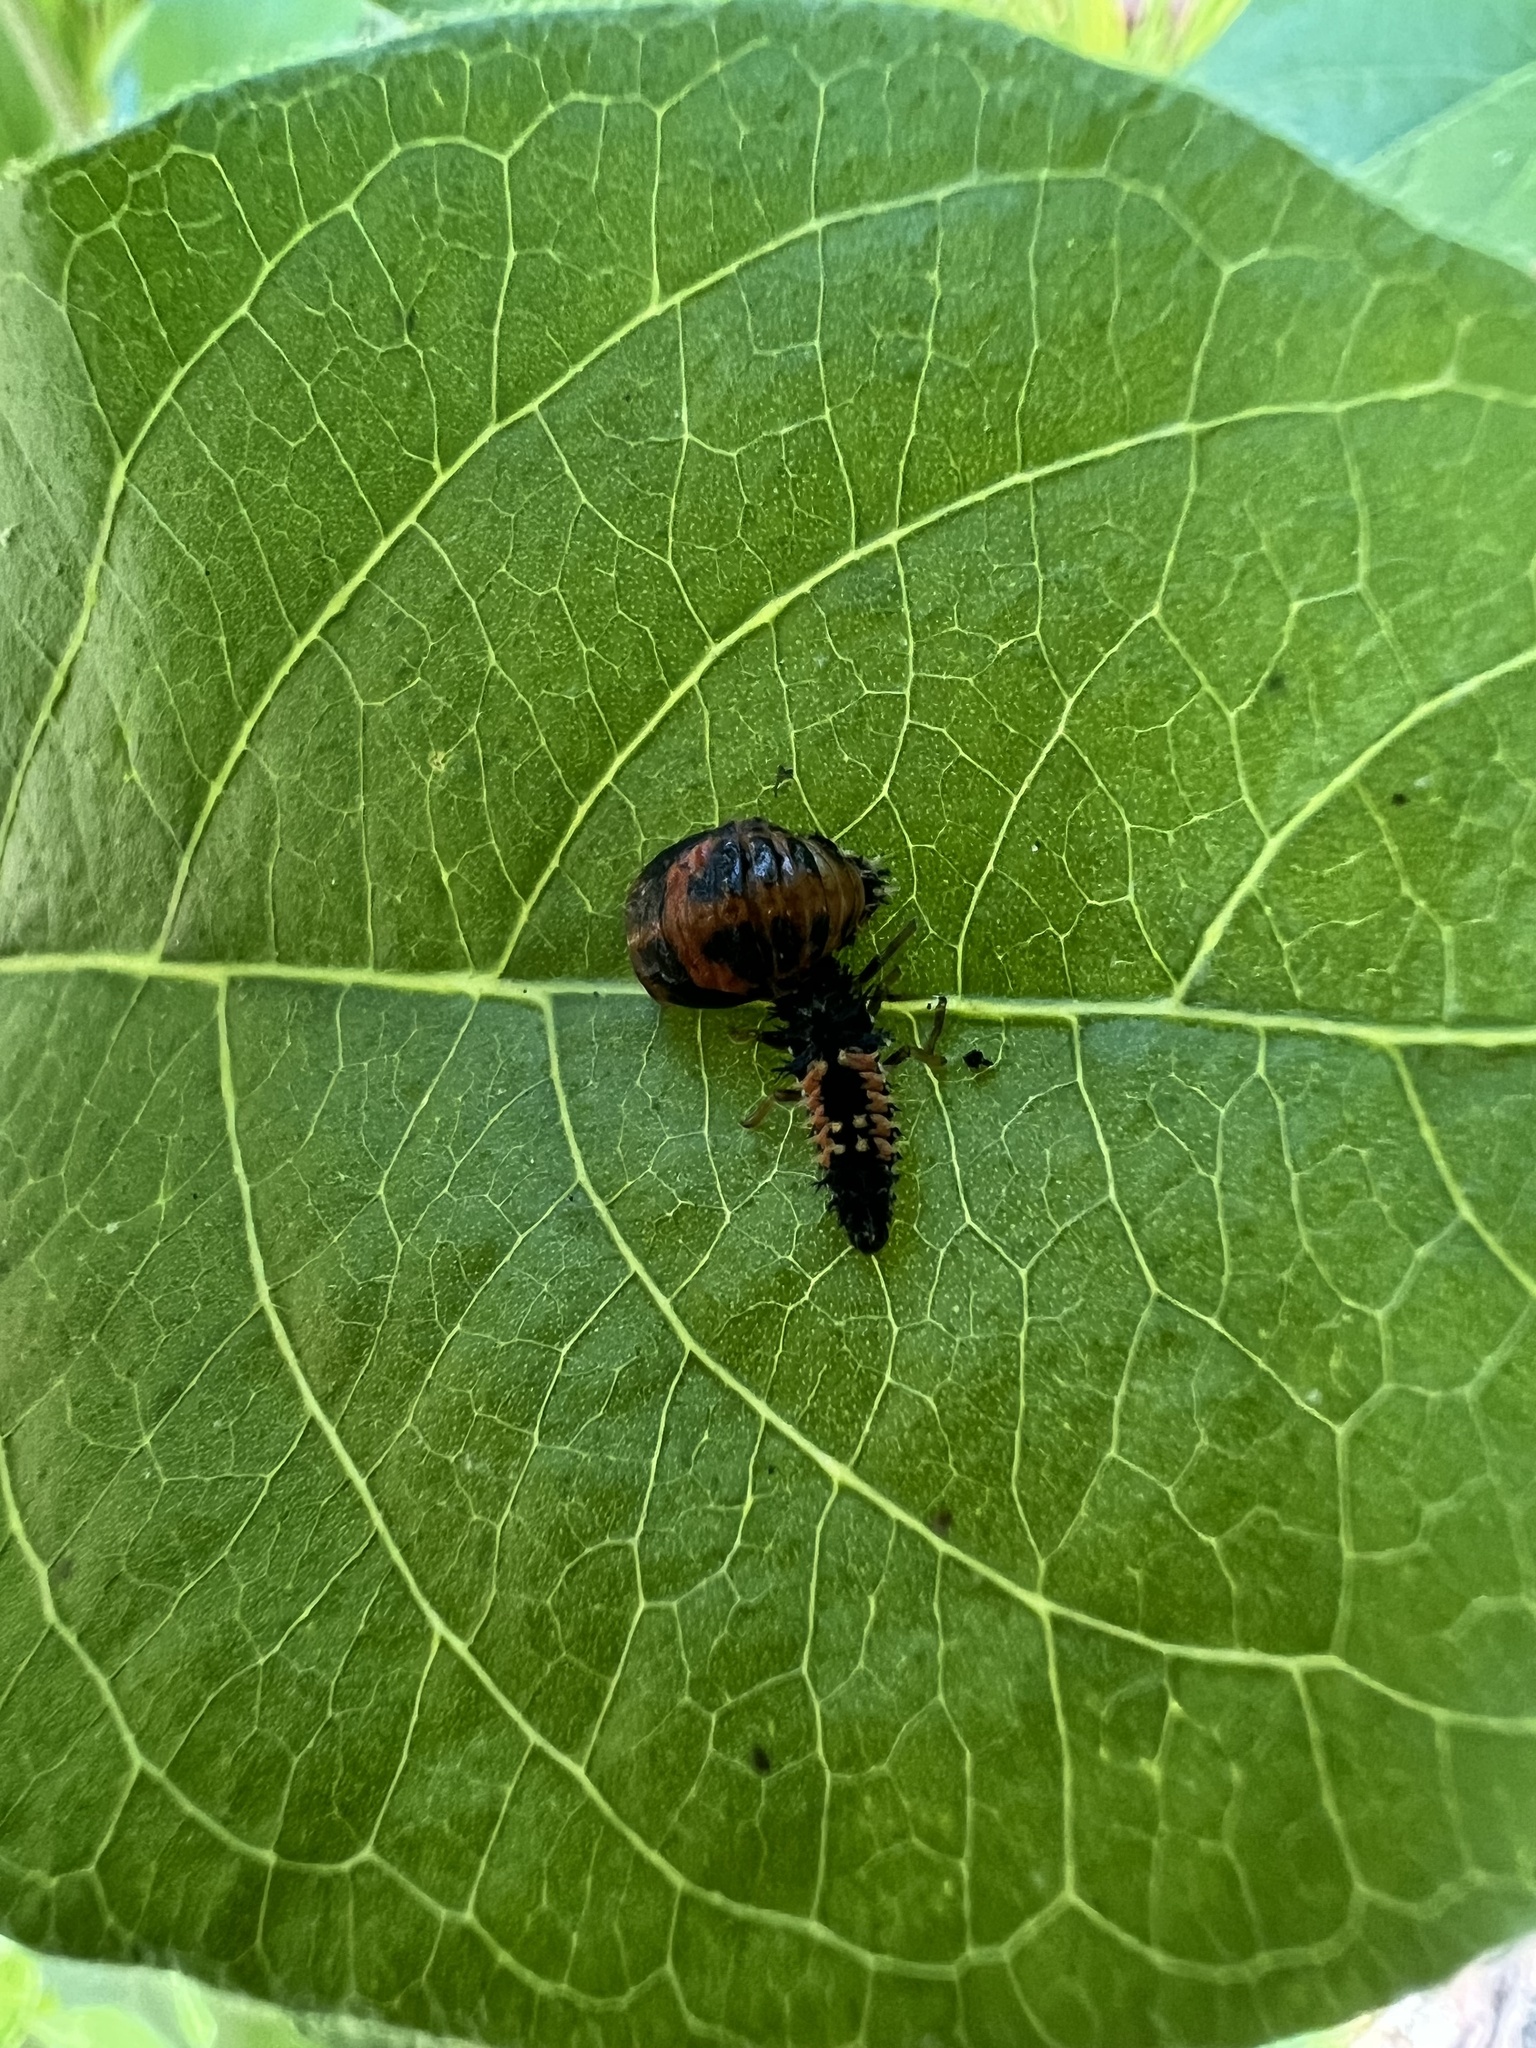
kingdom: Animalia
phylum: Arthropoda
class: Insecta
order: Coleoptera
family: Coccinellidae
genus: Harmonia
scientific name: Harmonia axyridis
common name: Harlequin ladybird
